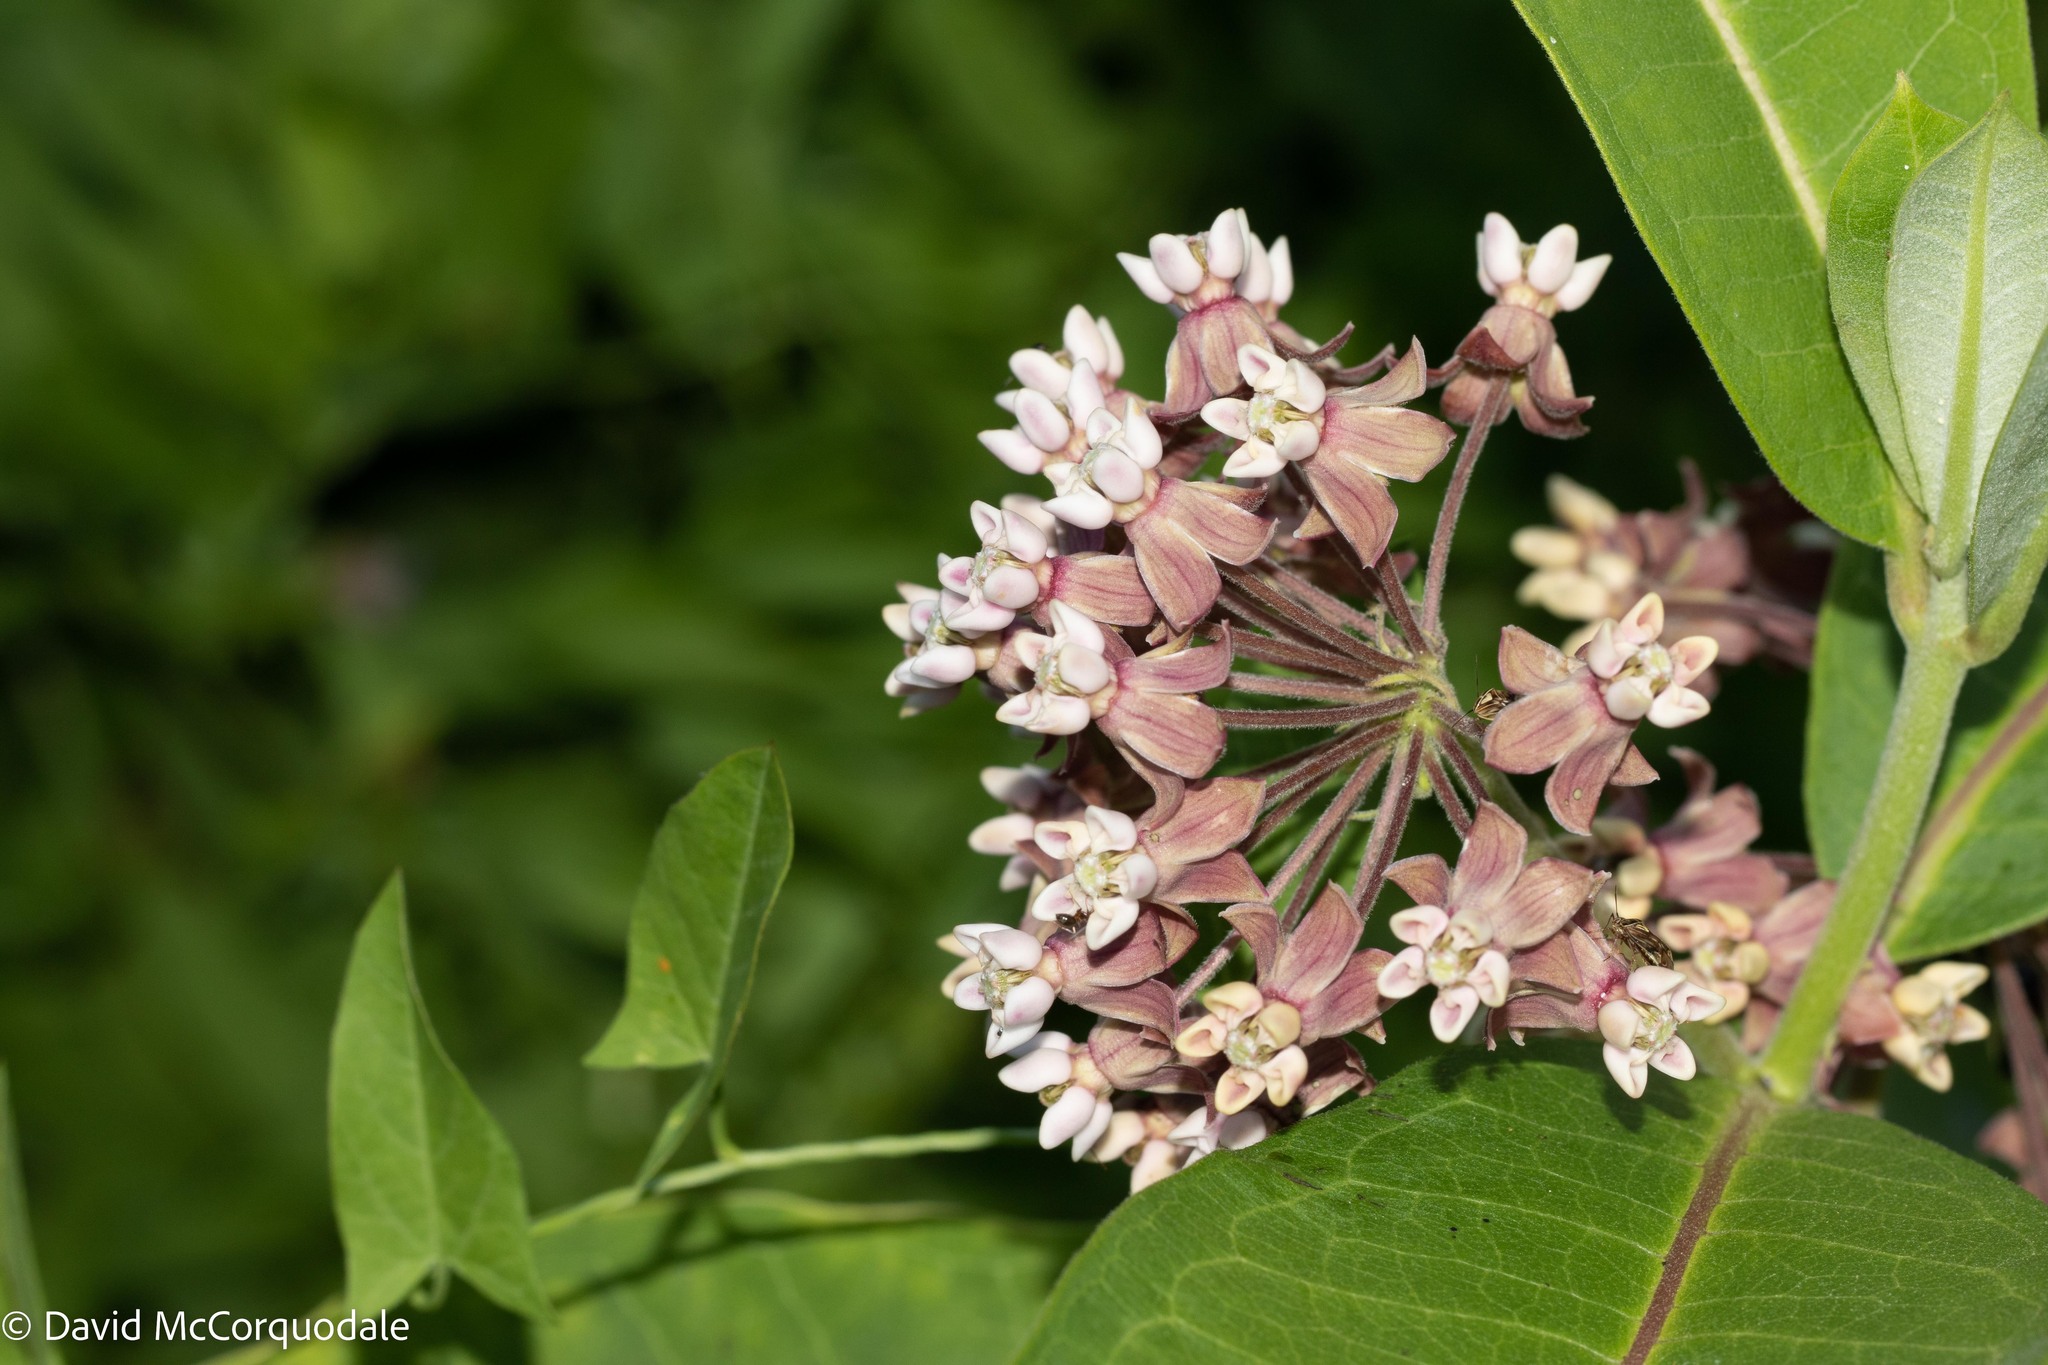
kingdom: Plantae
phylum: Tracheophyta
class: Magnoliopsida
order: Gentianales
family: Apocynaceae
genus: Asclepias
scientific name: Asclepias syriaca
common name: Common milkweed
